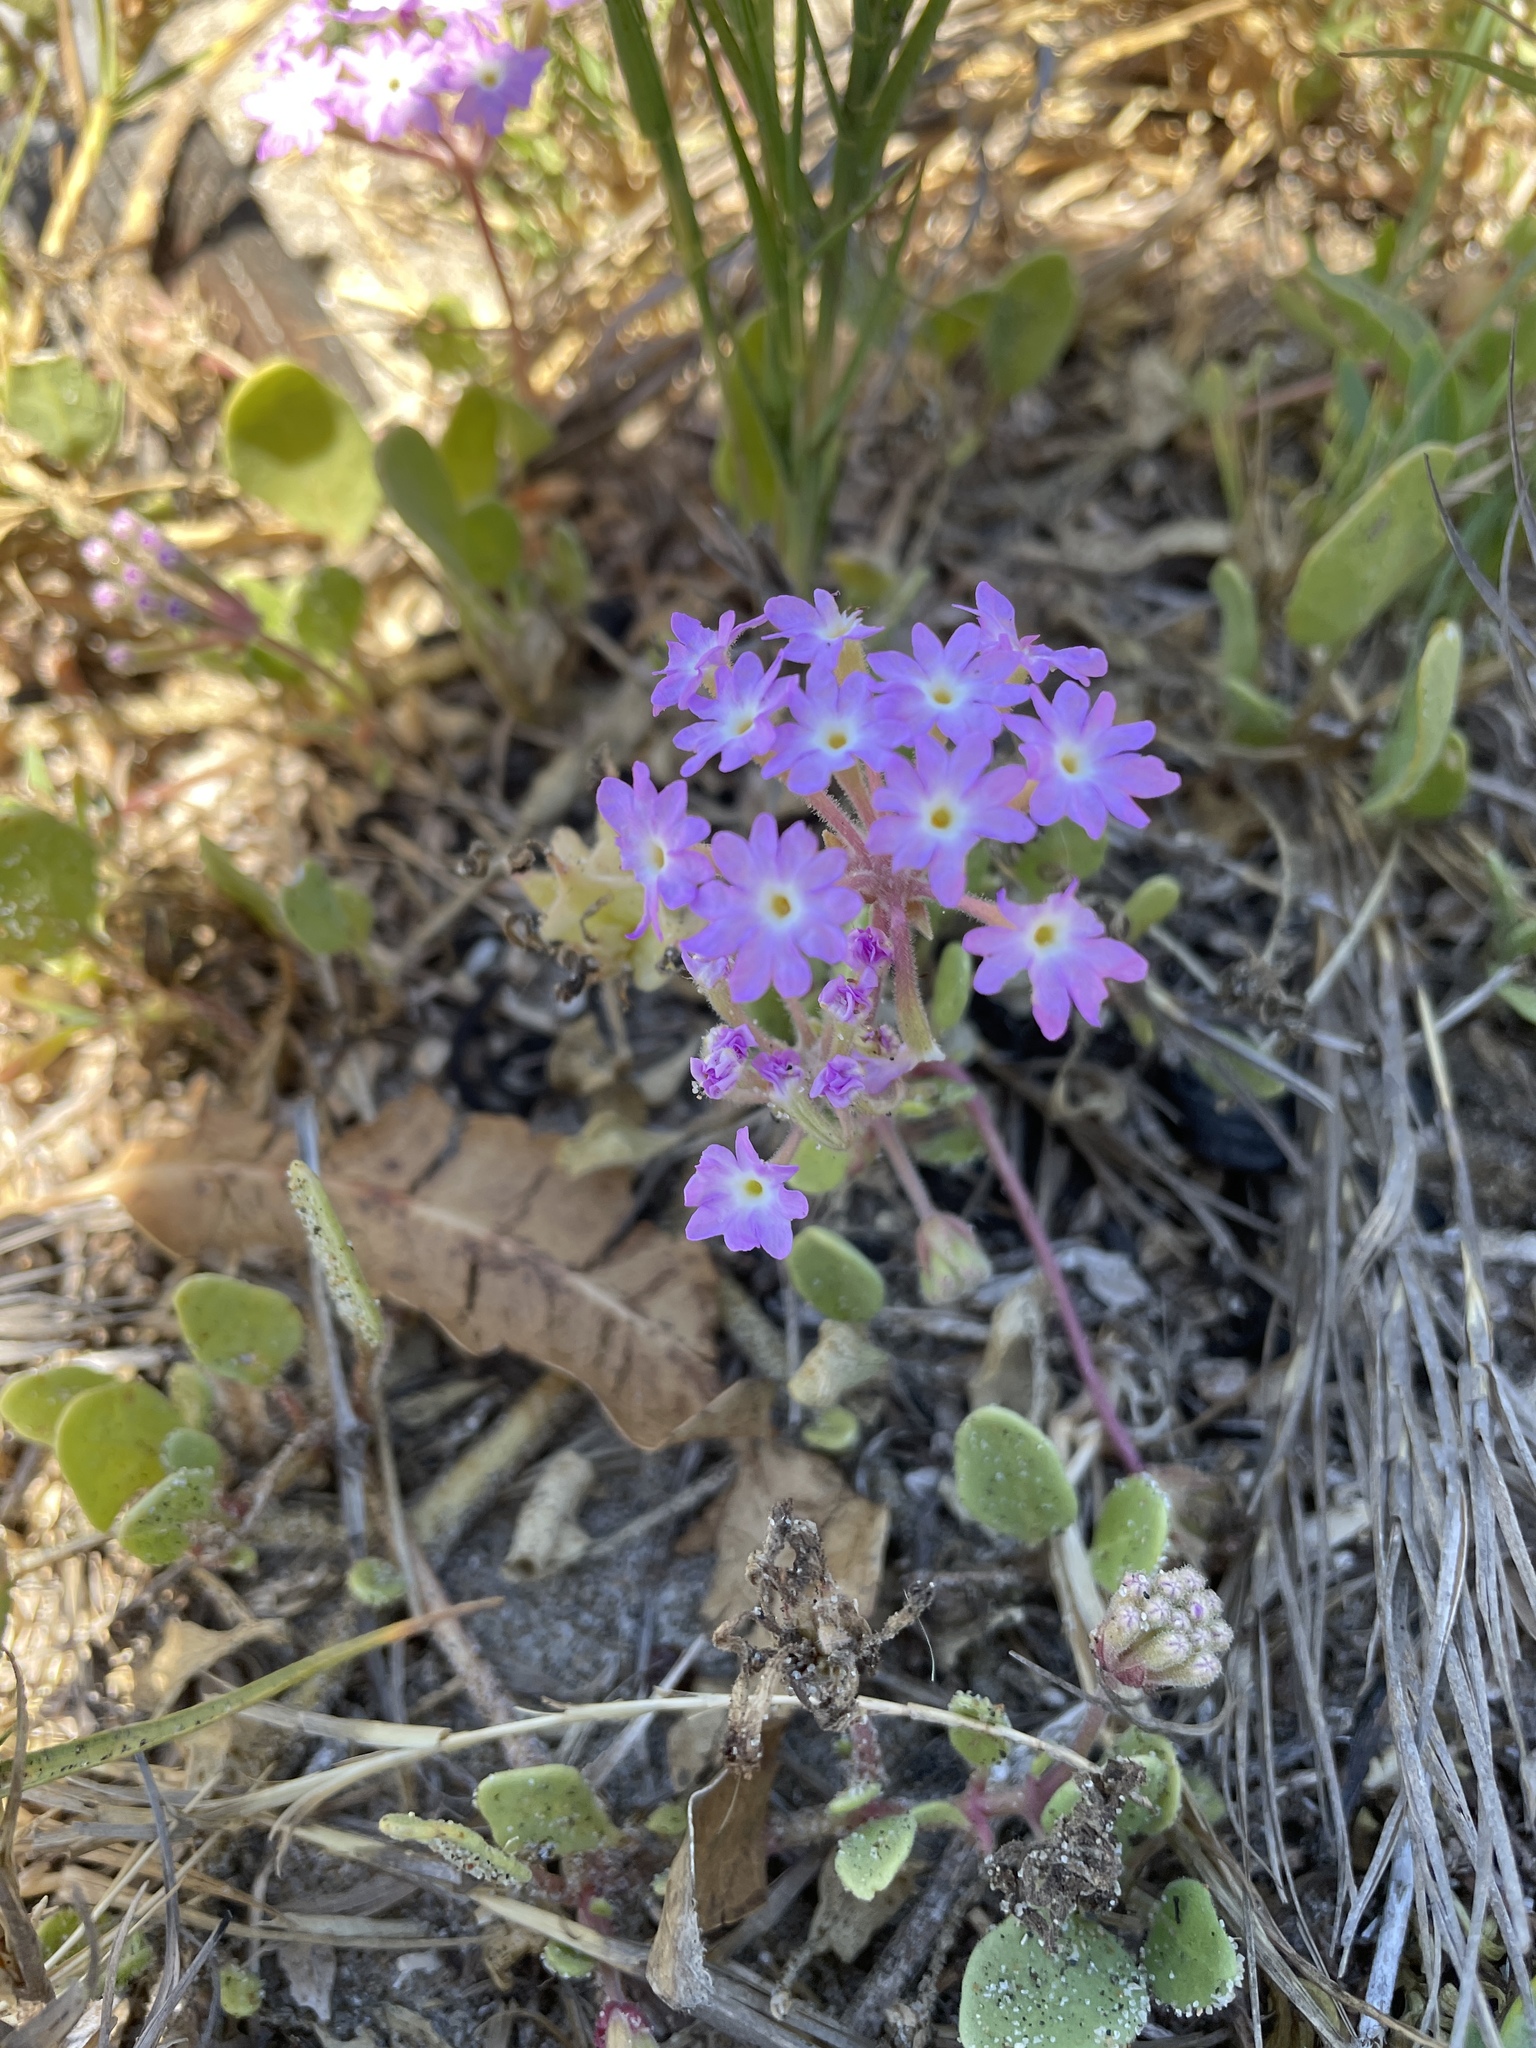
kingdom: Plantae
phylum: Tracheophyta
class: Magnoliopsida
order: Caryophyllales
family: Nyctaginaceae
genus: Abronia
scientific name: Abronia umbellata
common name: Sand-verbena
